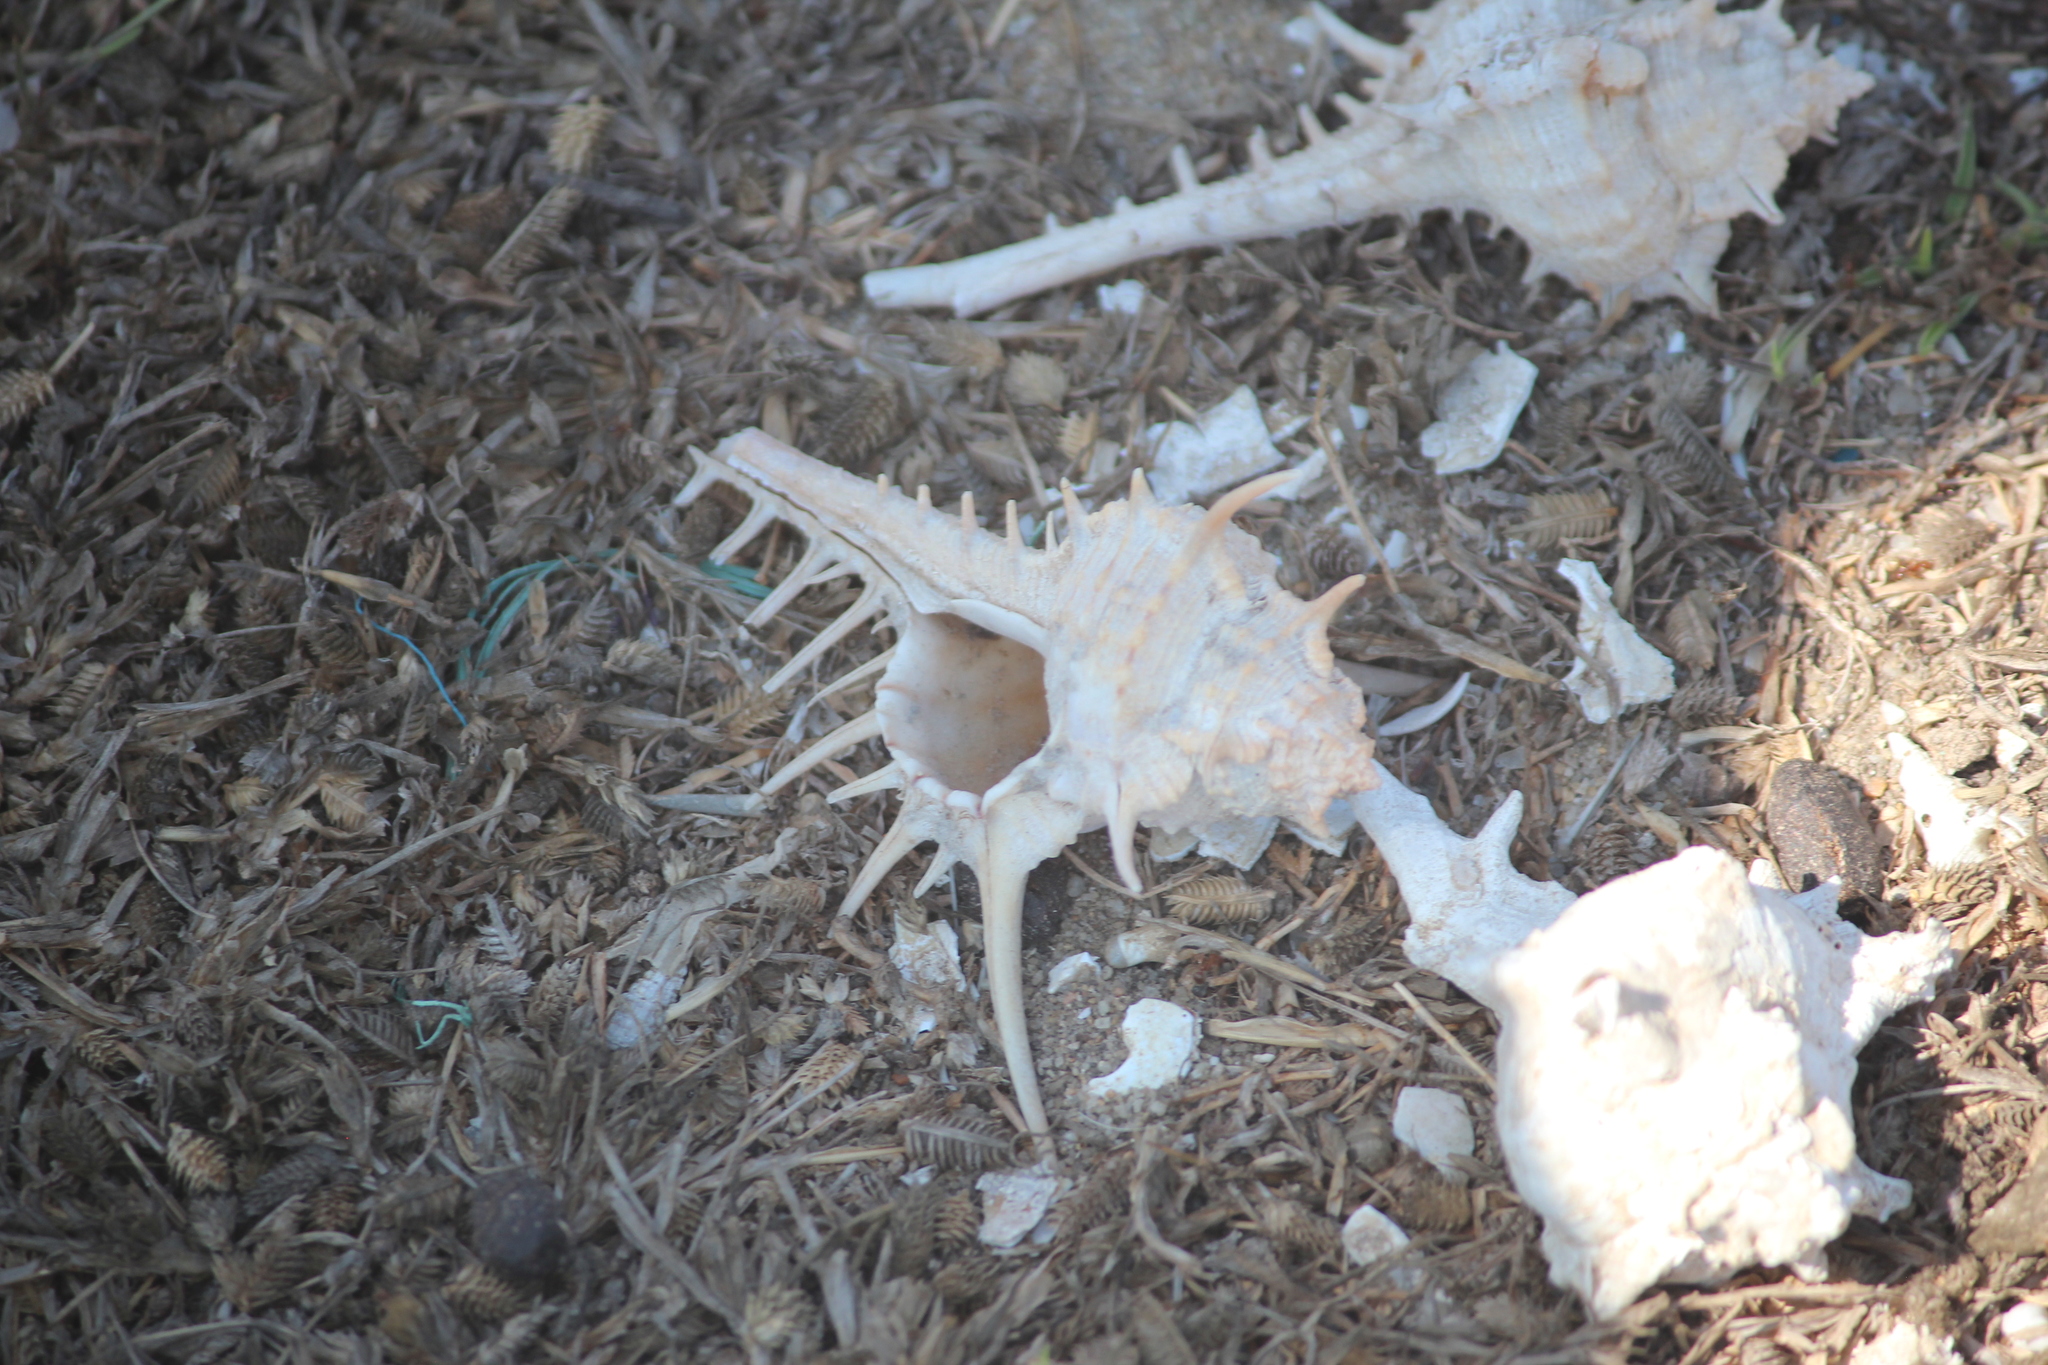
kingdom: Animalia
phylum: Mollusca
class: Gastropoda
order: Neogastropoda
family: Muricidae
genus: Murex
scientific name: Murex carbonnieri
